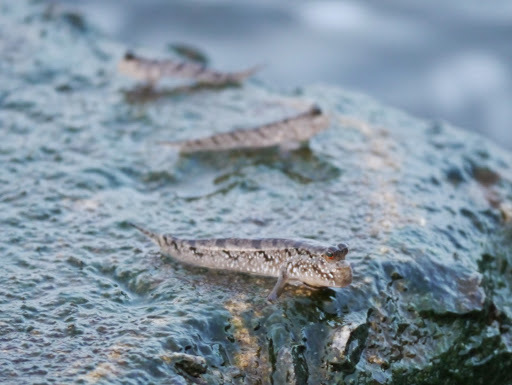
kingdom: Animalia
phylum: Chordata
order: Perciformes
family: Gobiidae
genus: Periophthalmus
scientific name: Periophthalmus barbarus
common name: Atlantic mudskipper
